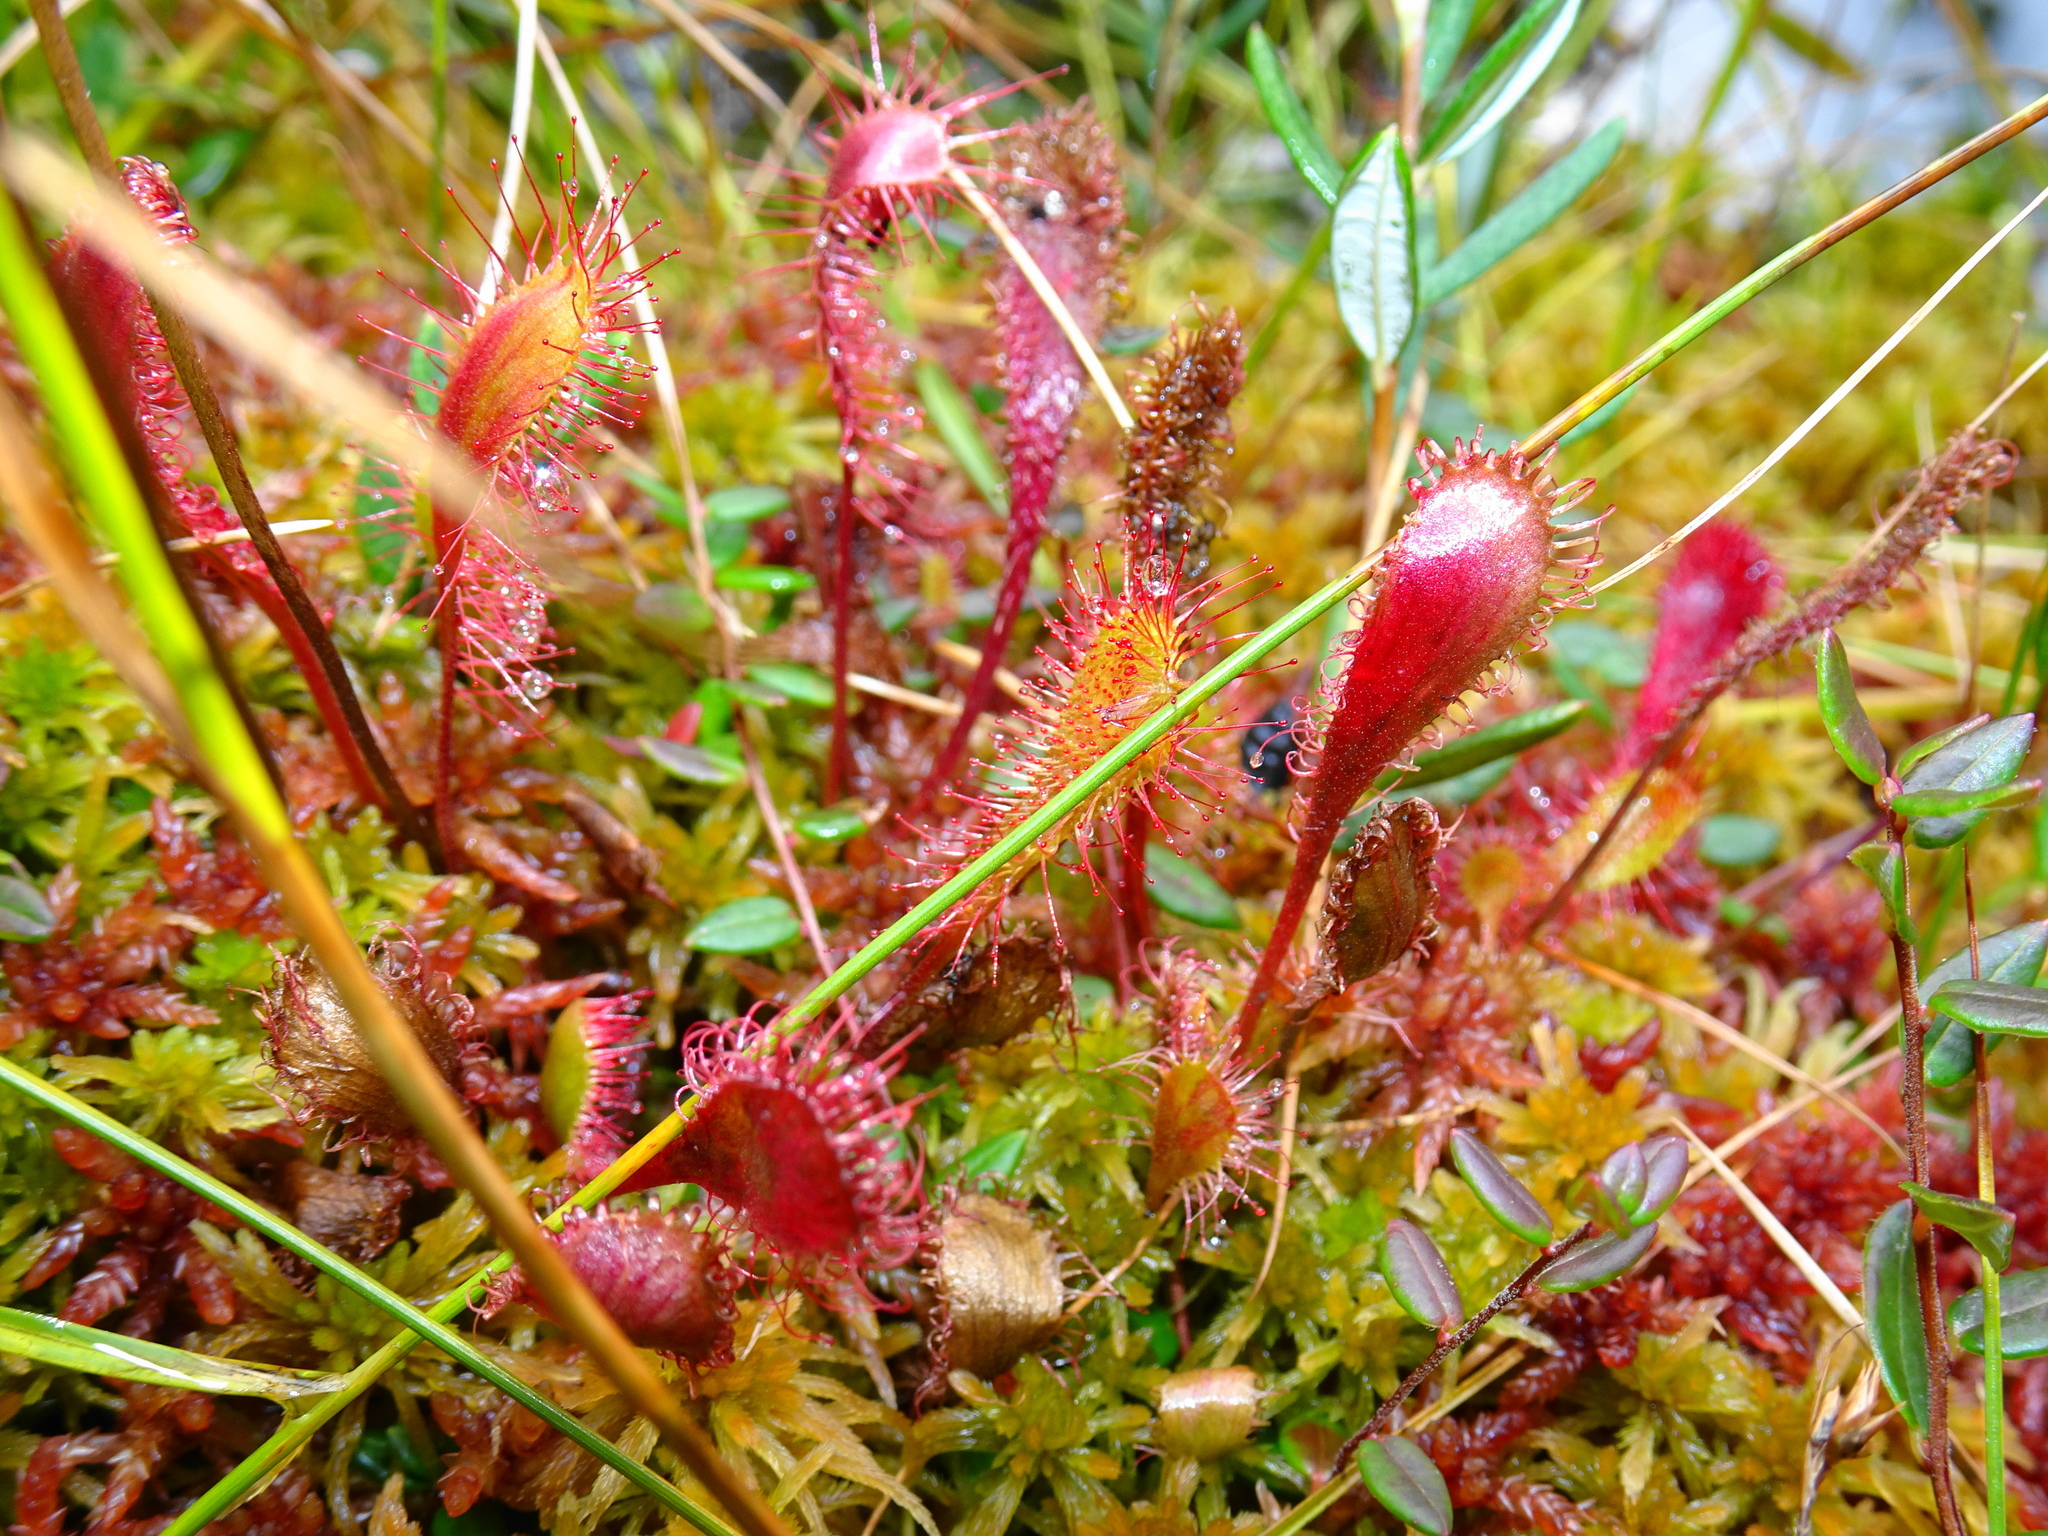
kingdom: Plantae
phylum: Tracheophyta
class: Magnoliopsida
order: Caryophyllales
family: Droseraceae
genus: Drosera
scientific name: Drosera anglica
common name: Great sundew
